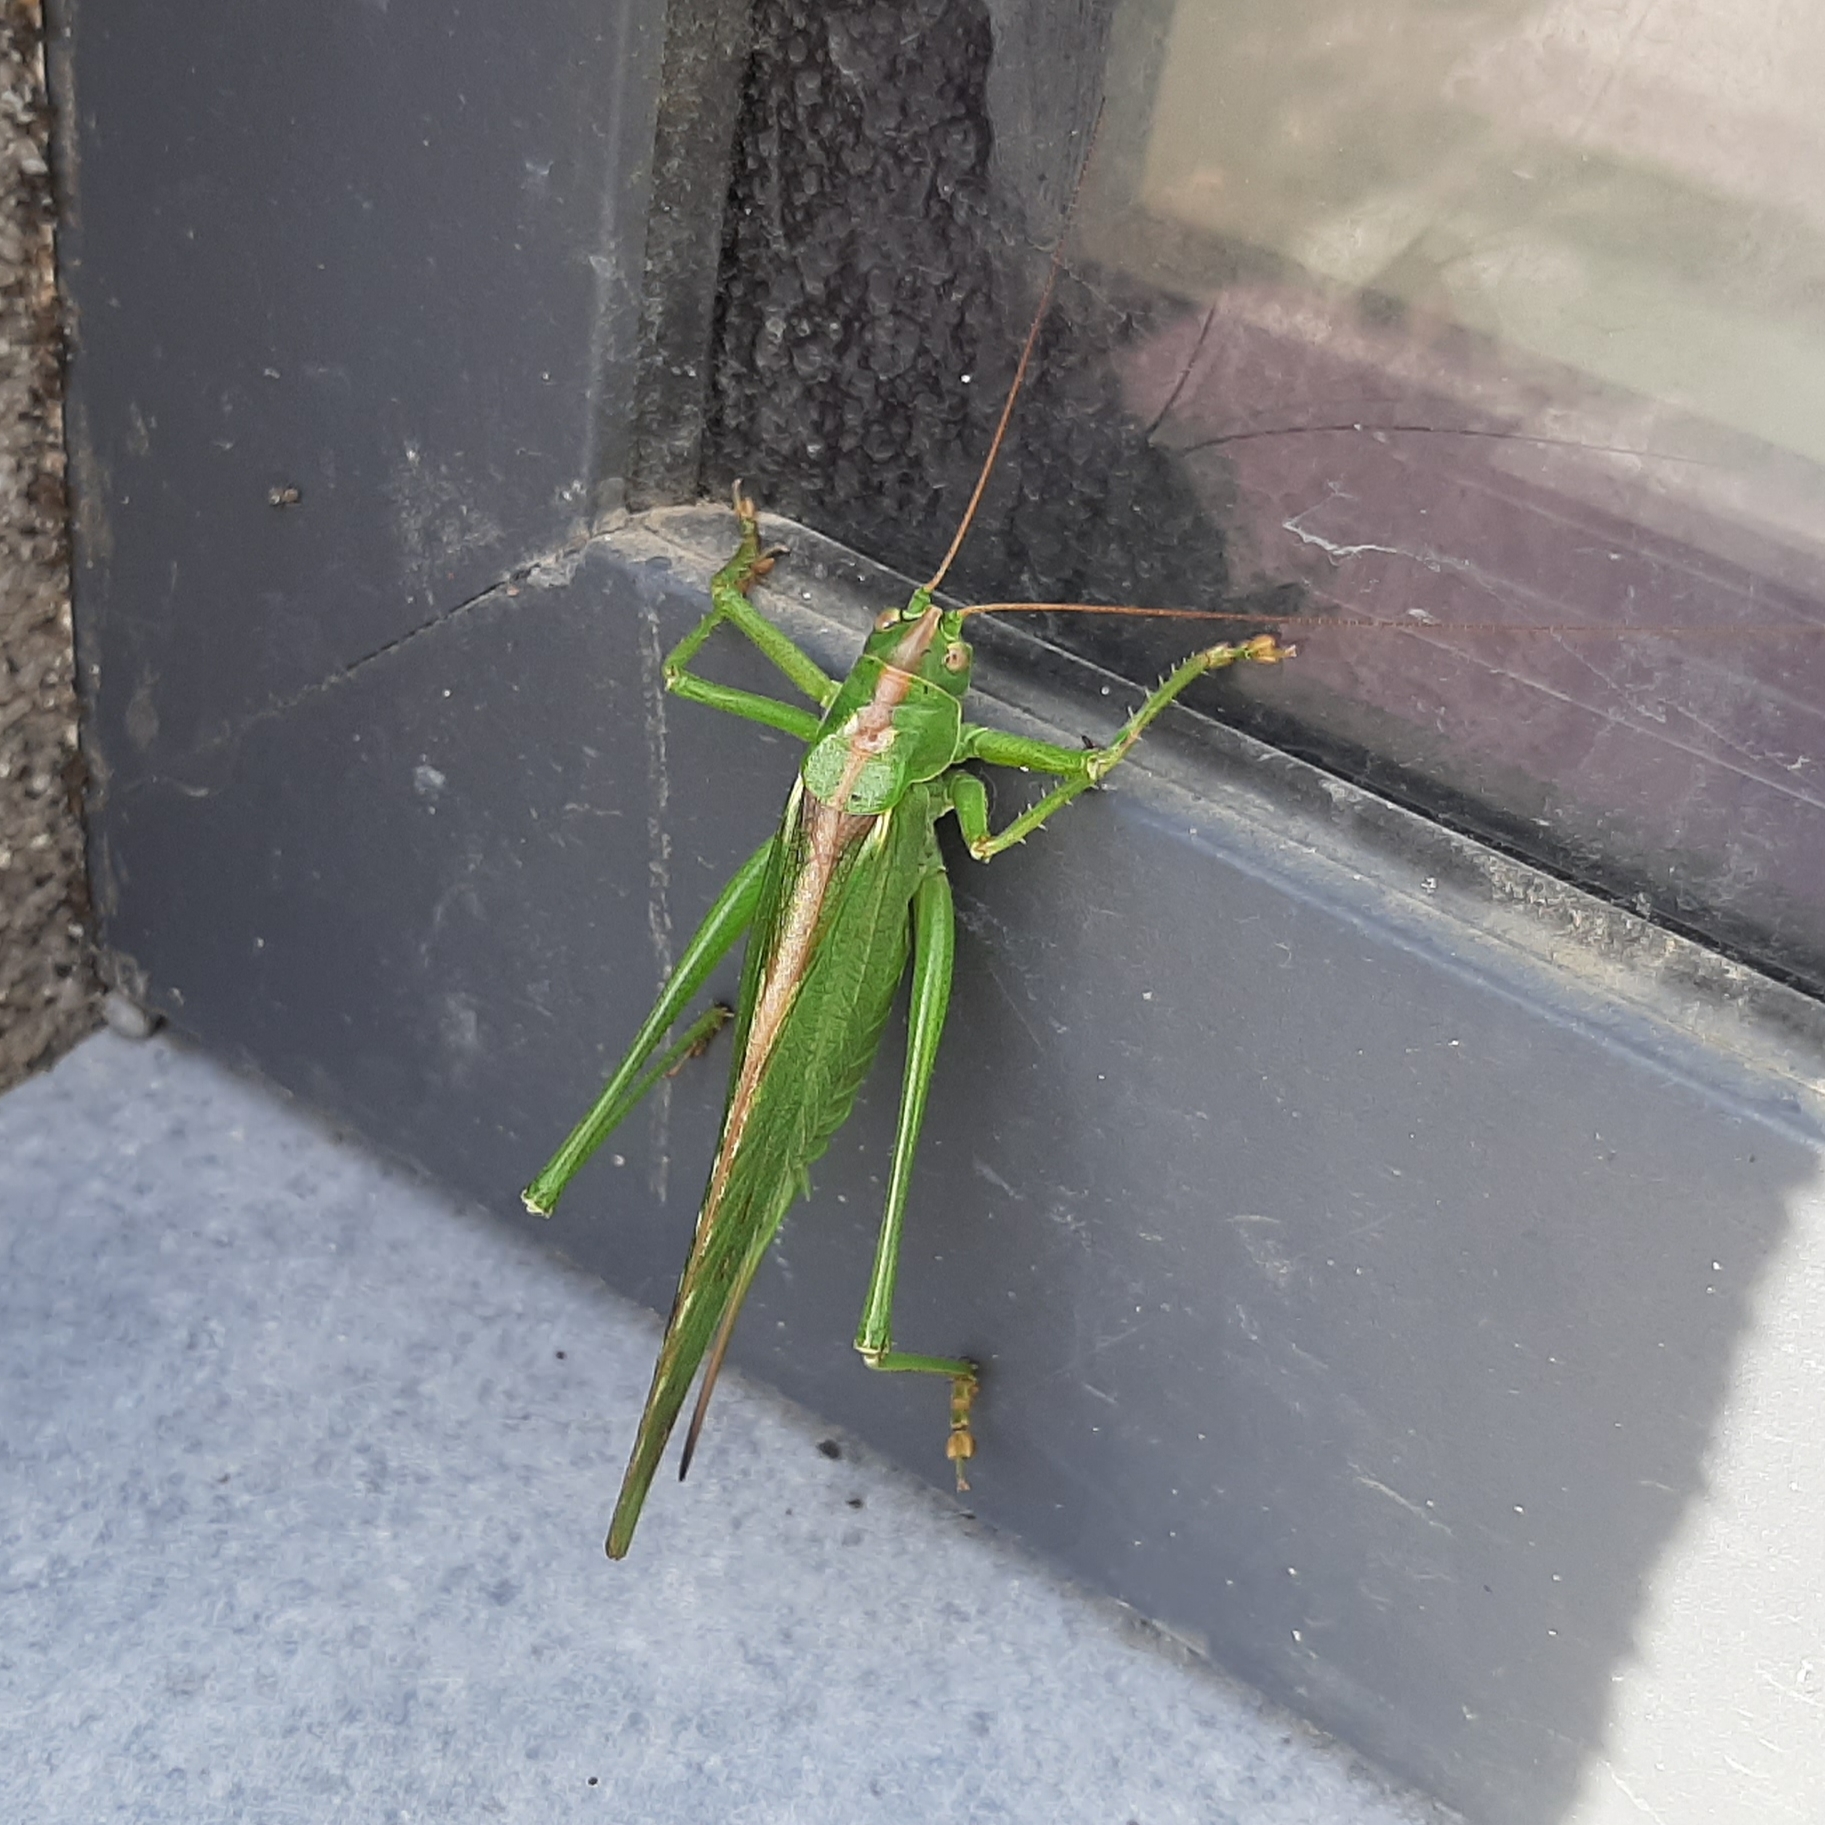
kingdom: Animalia
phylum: Arthropoda
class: Insecta
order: Orthoptera
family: Tettigoniidae
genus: Tettigonia
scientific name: Tettigonia viridissima
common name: Great green bush-cricket
